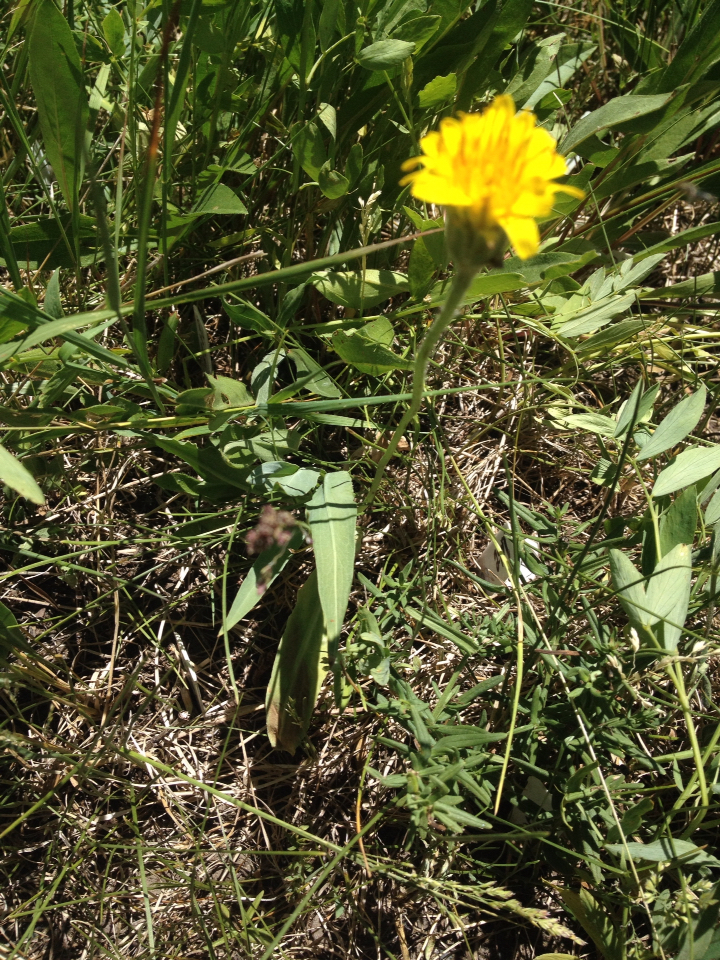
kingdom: Plantae
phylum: Tracheophyta
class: Magnoliopsida
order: Asterales
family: Asteraceae
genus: Agoseris
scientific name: Agoseris glauca
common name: Prairie agoseris
